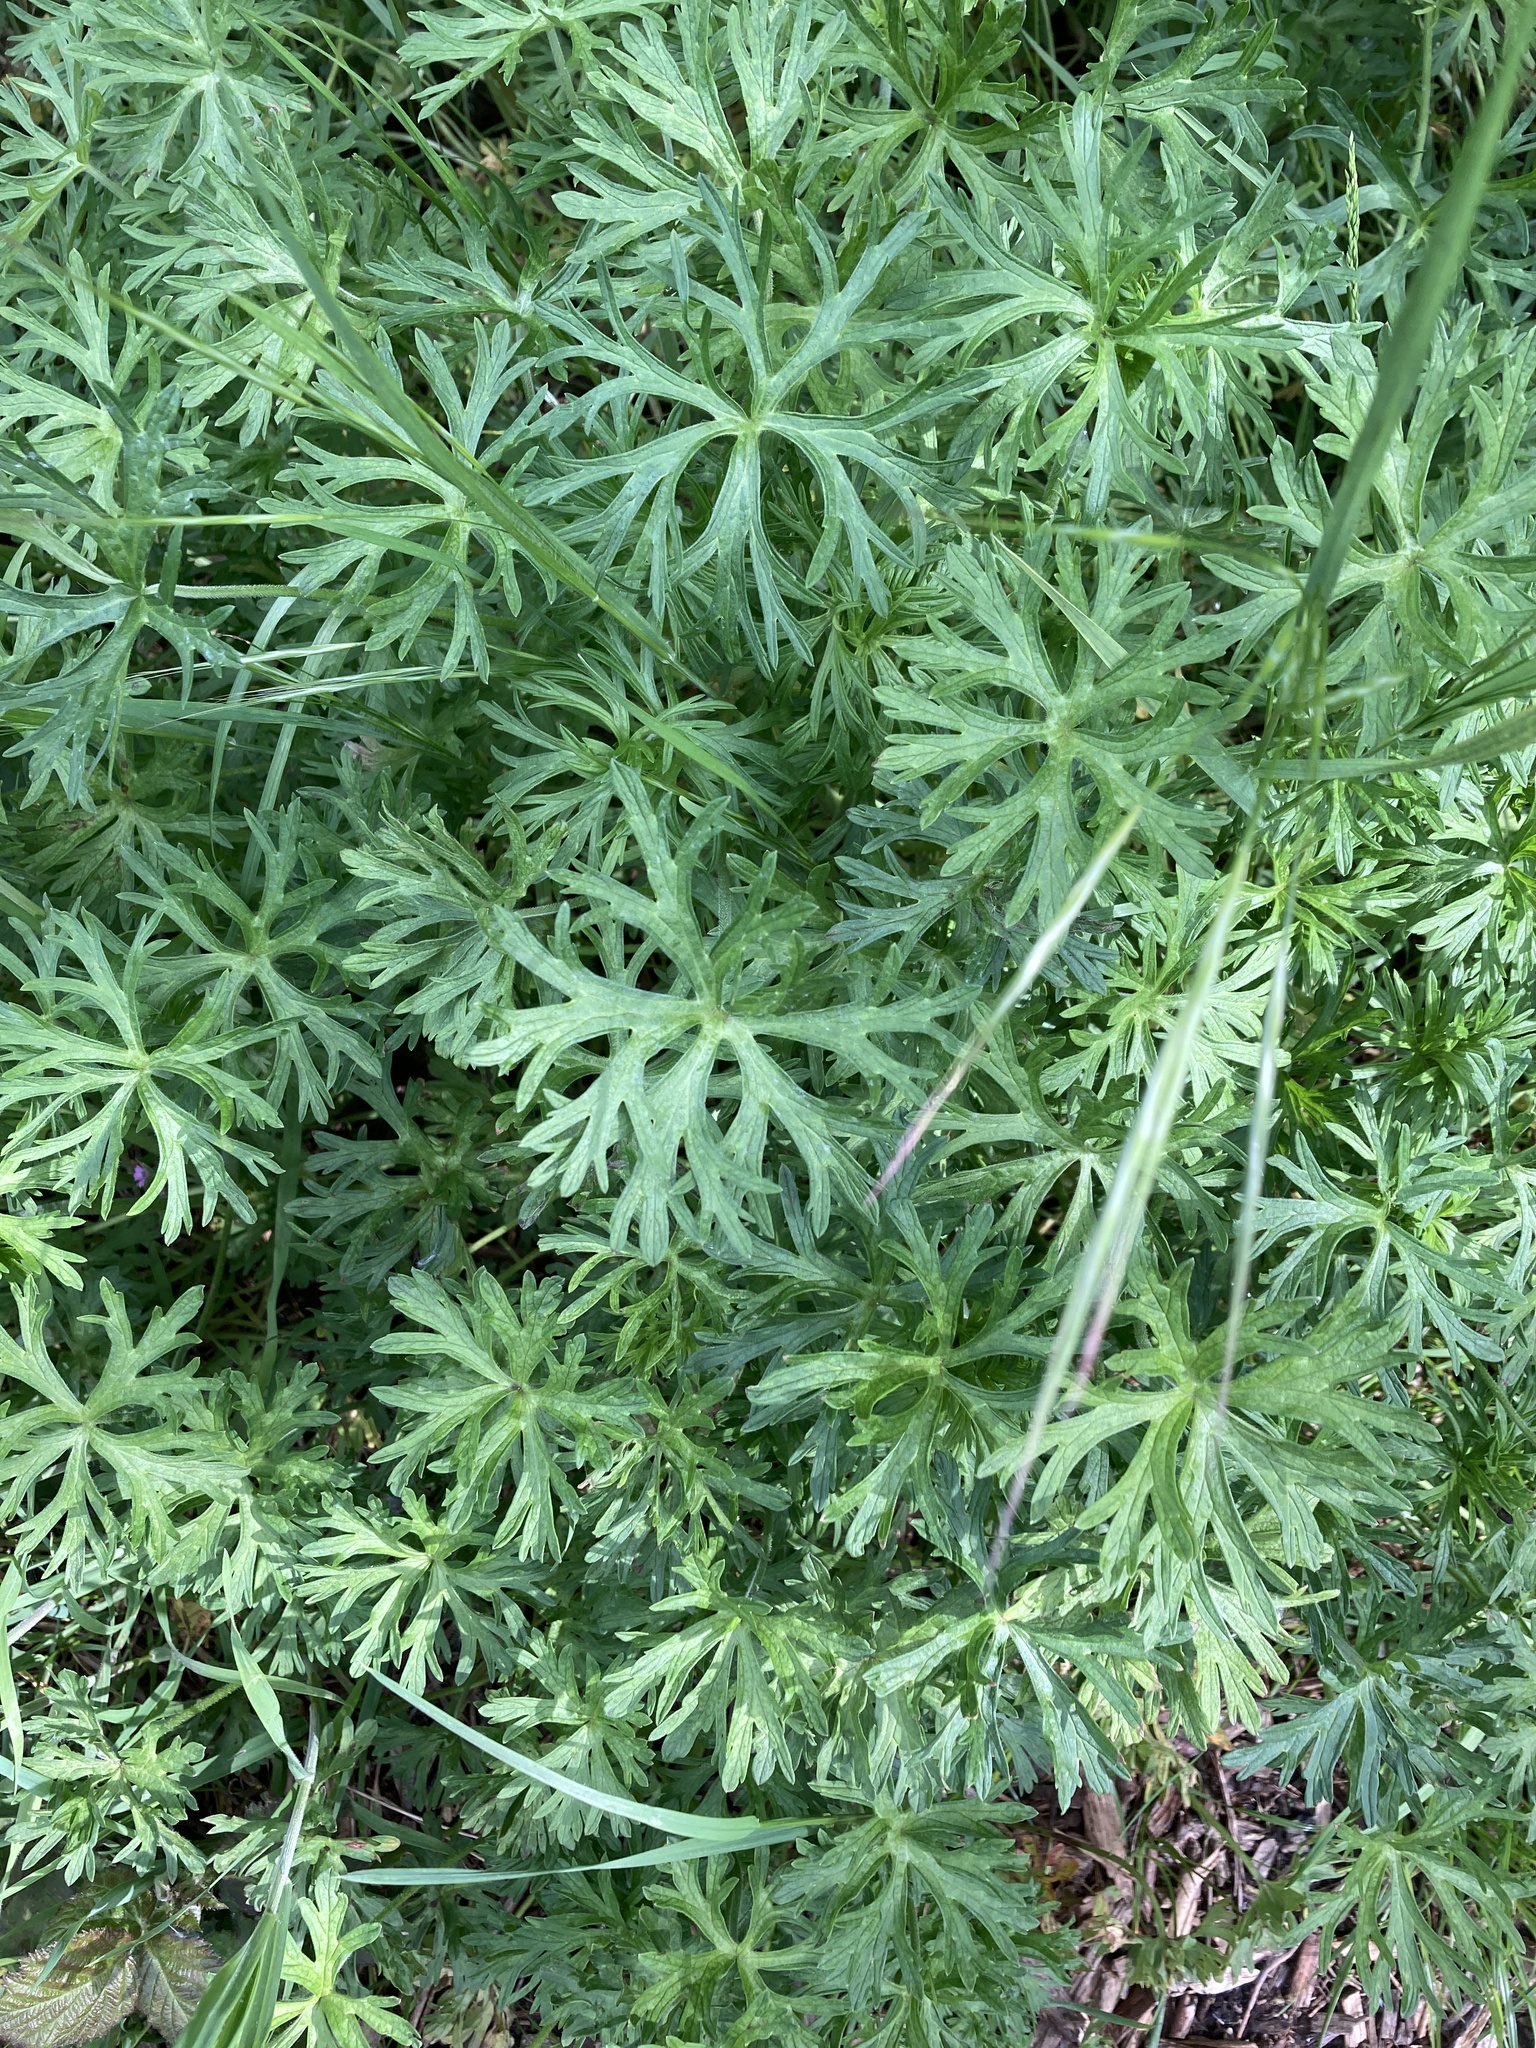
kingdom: Plantae
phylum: Tracheophyta
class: Magnoliopsida
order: Geraniales
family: Geraniaceae
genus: Geranium
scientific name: Geranium dissectum
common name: Cut-leaved crane's-bill
